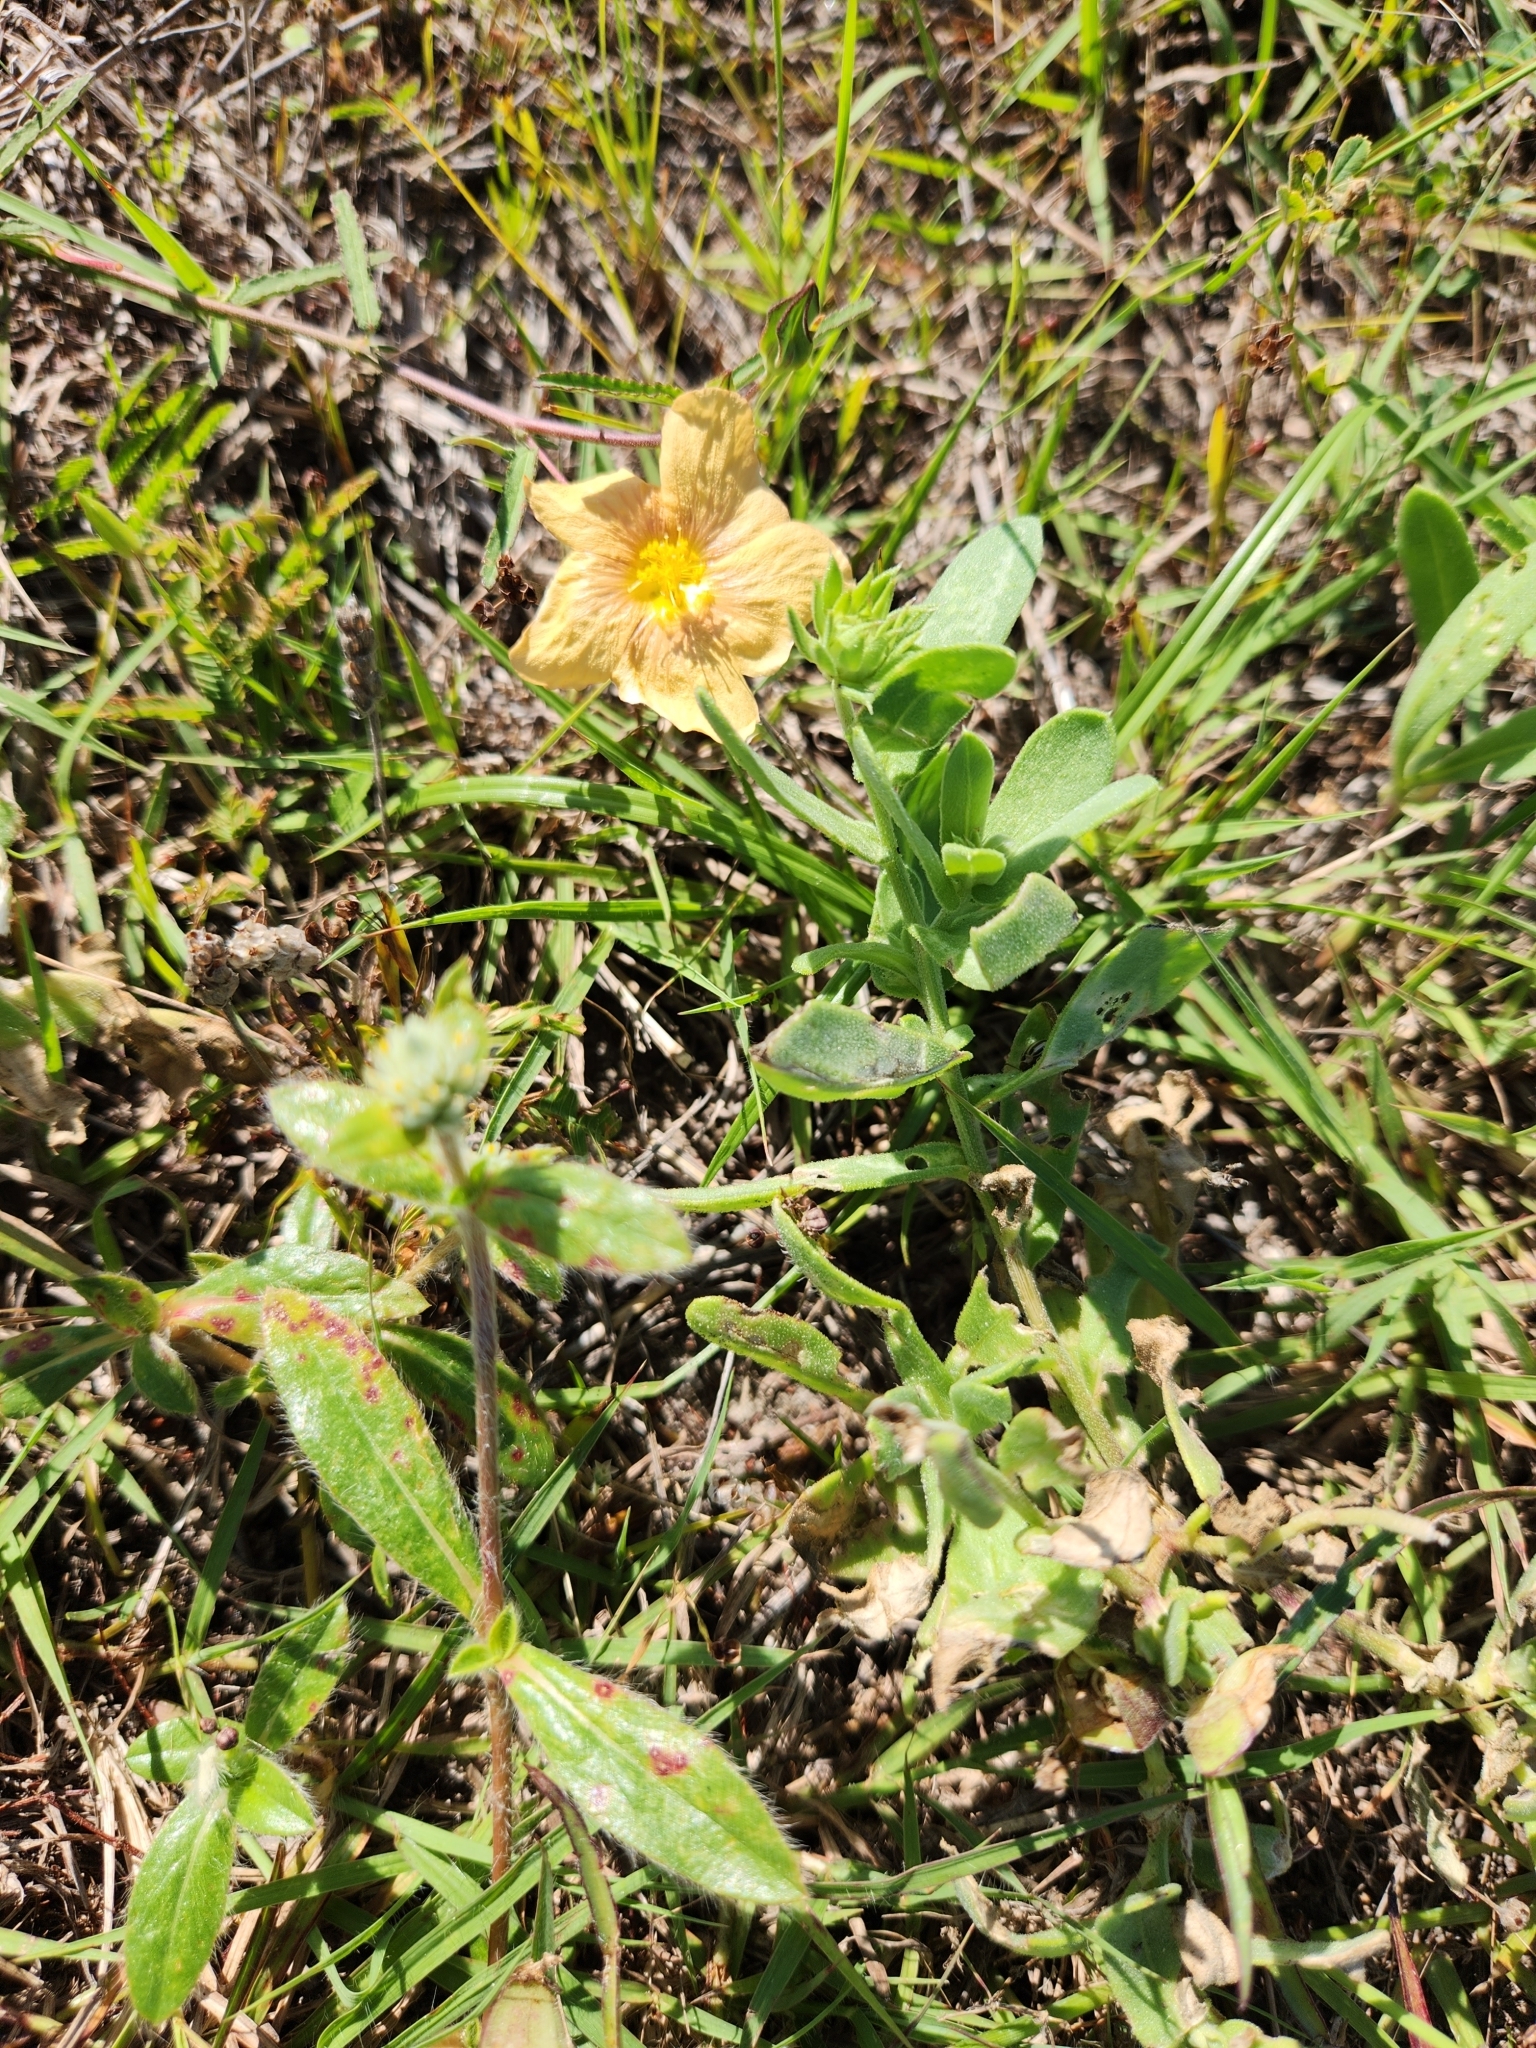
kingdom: Plantae
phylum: Tracheophyta
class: Magnoliopsida
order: Malvales
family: Malvaceae
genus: Sida
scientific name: Sida abutilifolia
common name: Spreading fanpetals
